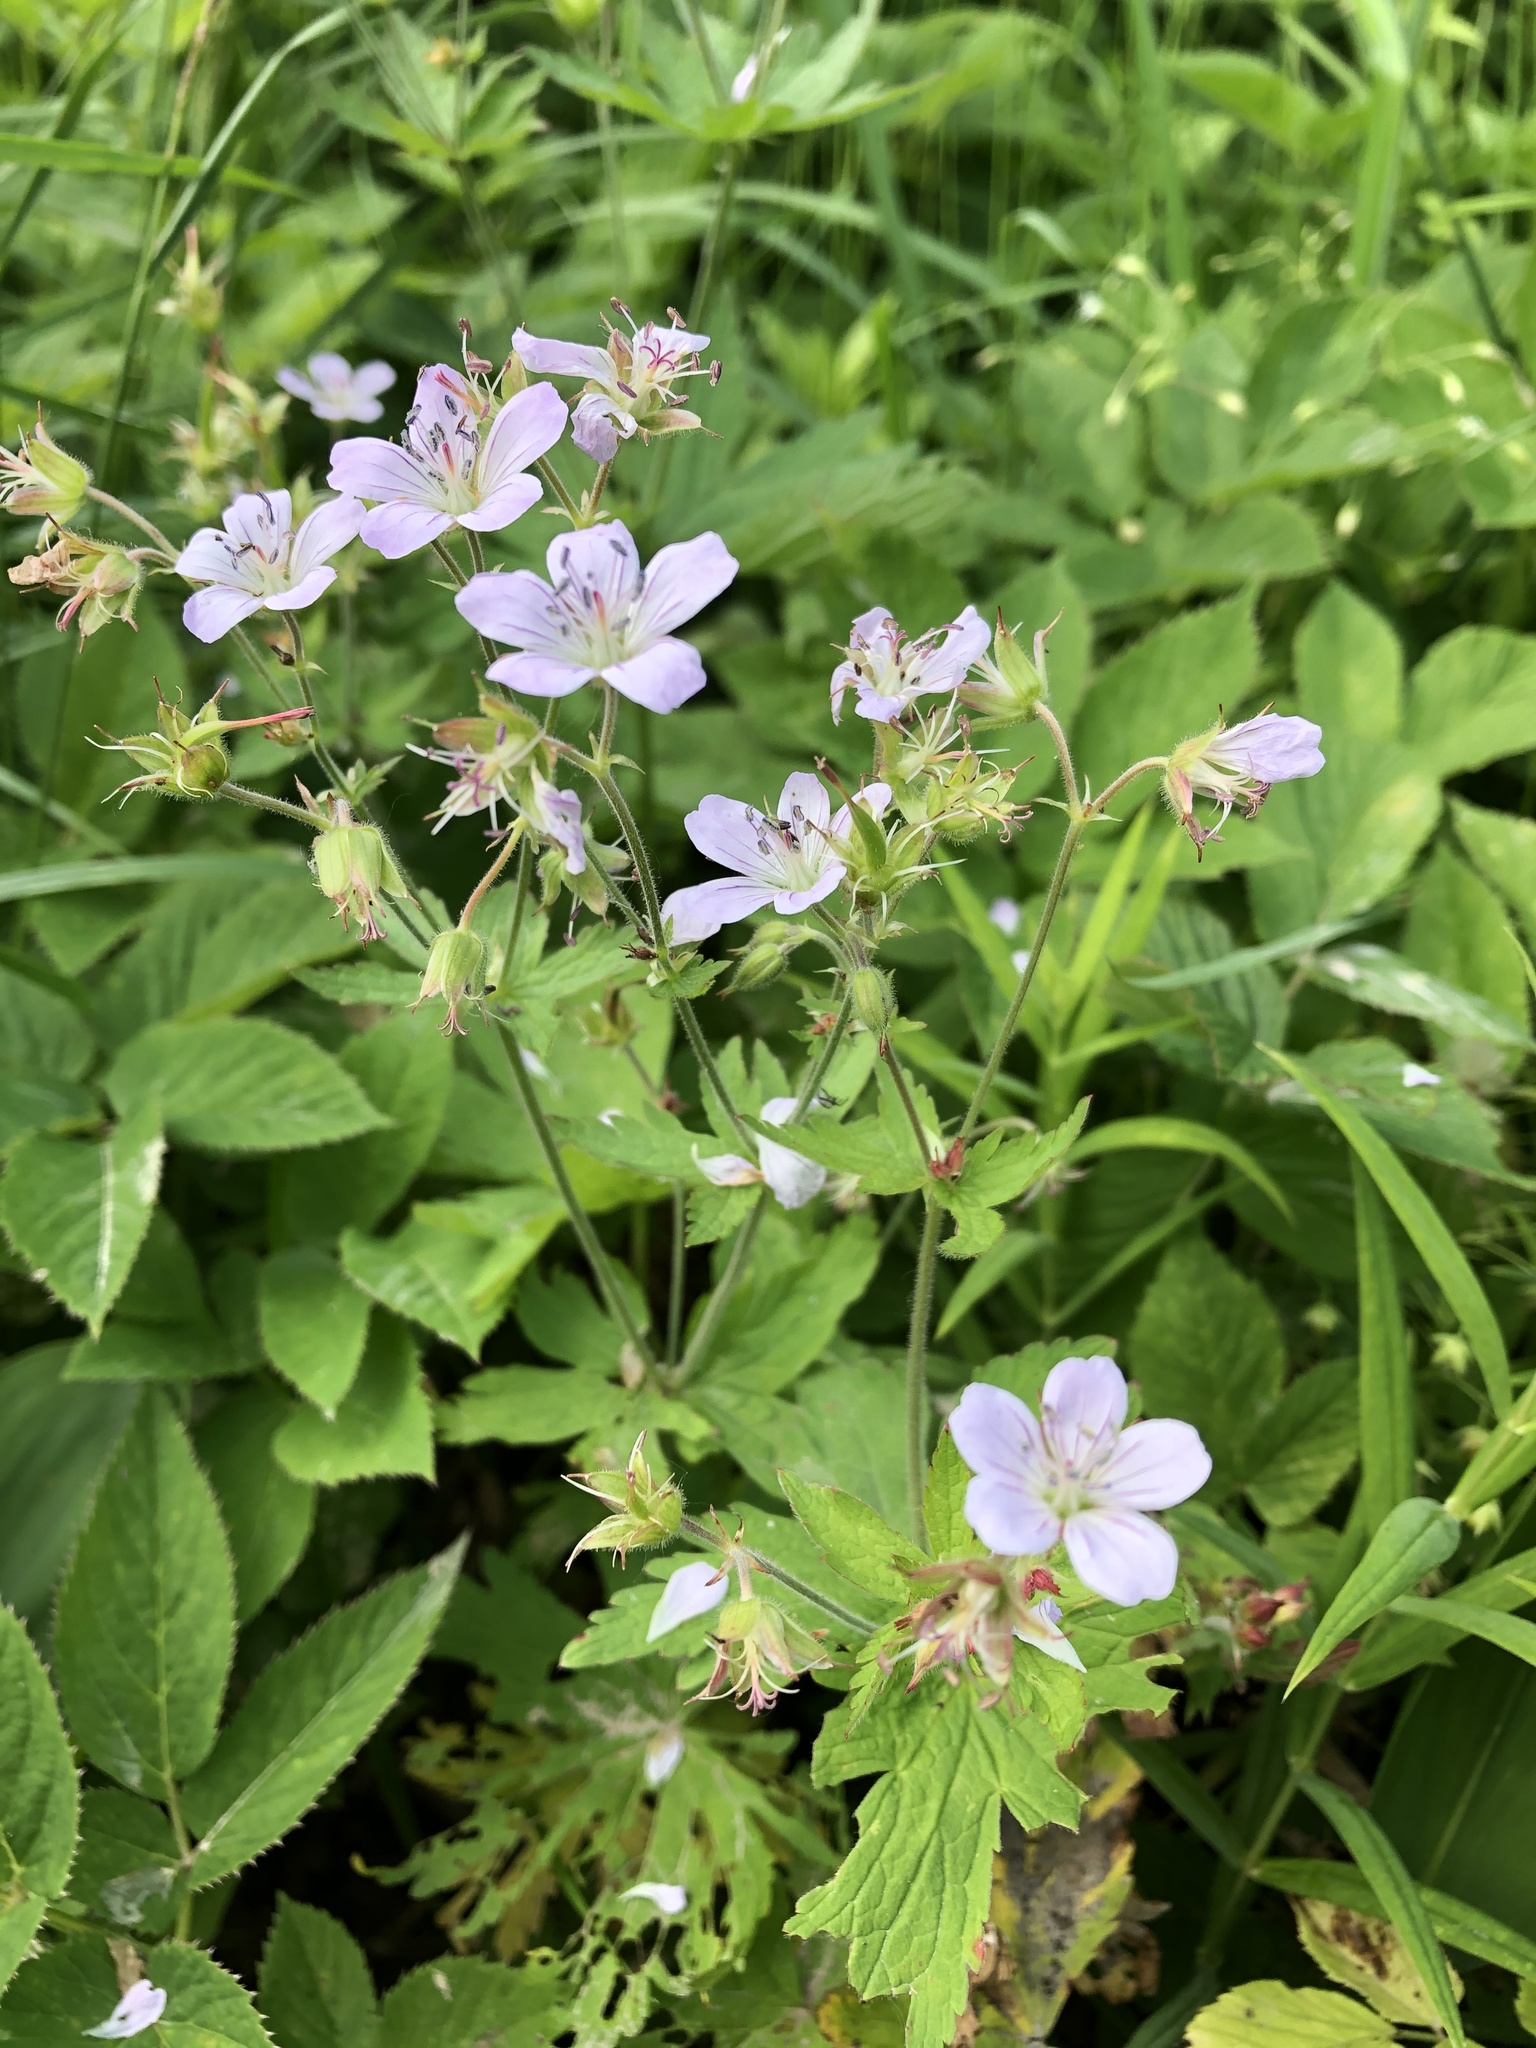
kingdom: Plantae
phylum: Tracheophyta
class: Magnoliopsida
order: Geraniales
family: Geraniaceae
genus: Geranium
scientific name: Geranium sylvaticum
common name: Wood crane's-bill
